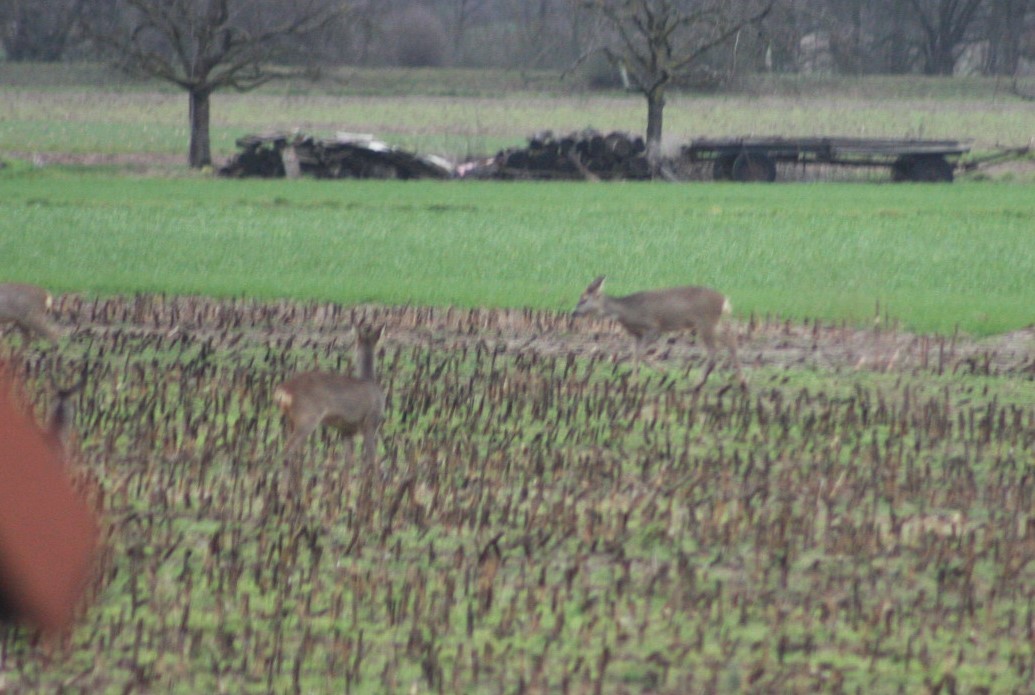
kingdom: Animalia
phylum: Chordata
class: Mammalia
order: Artiodactyla
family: Cervidae
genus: Capreolus
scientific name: Capreolus capreolus
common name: Western roe deer
